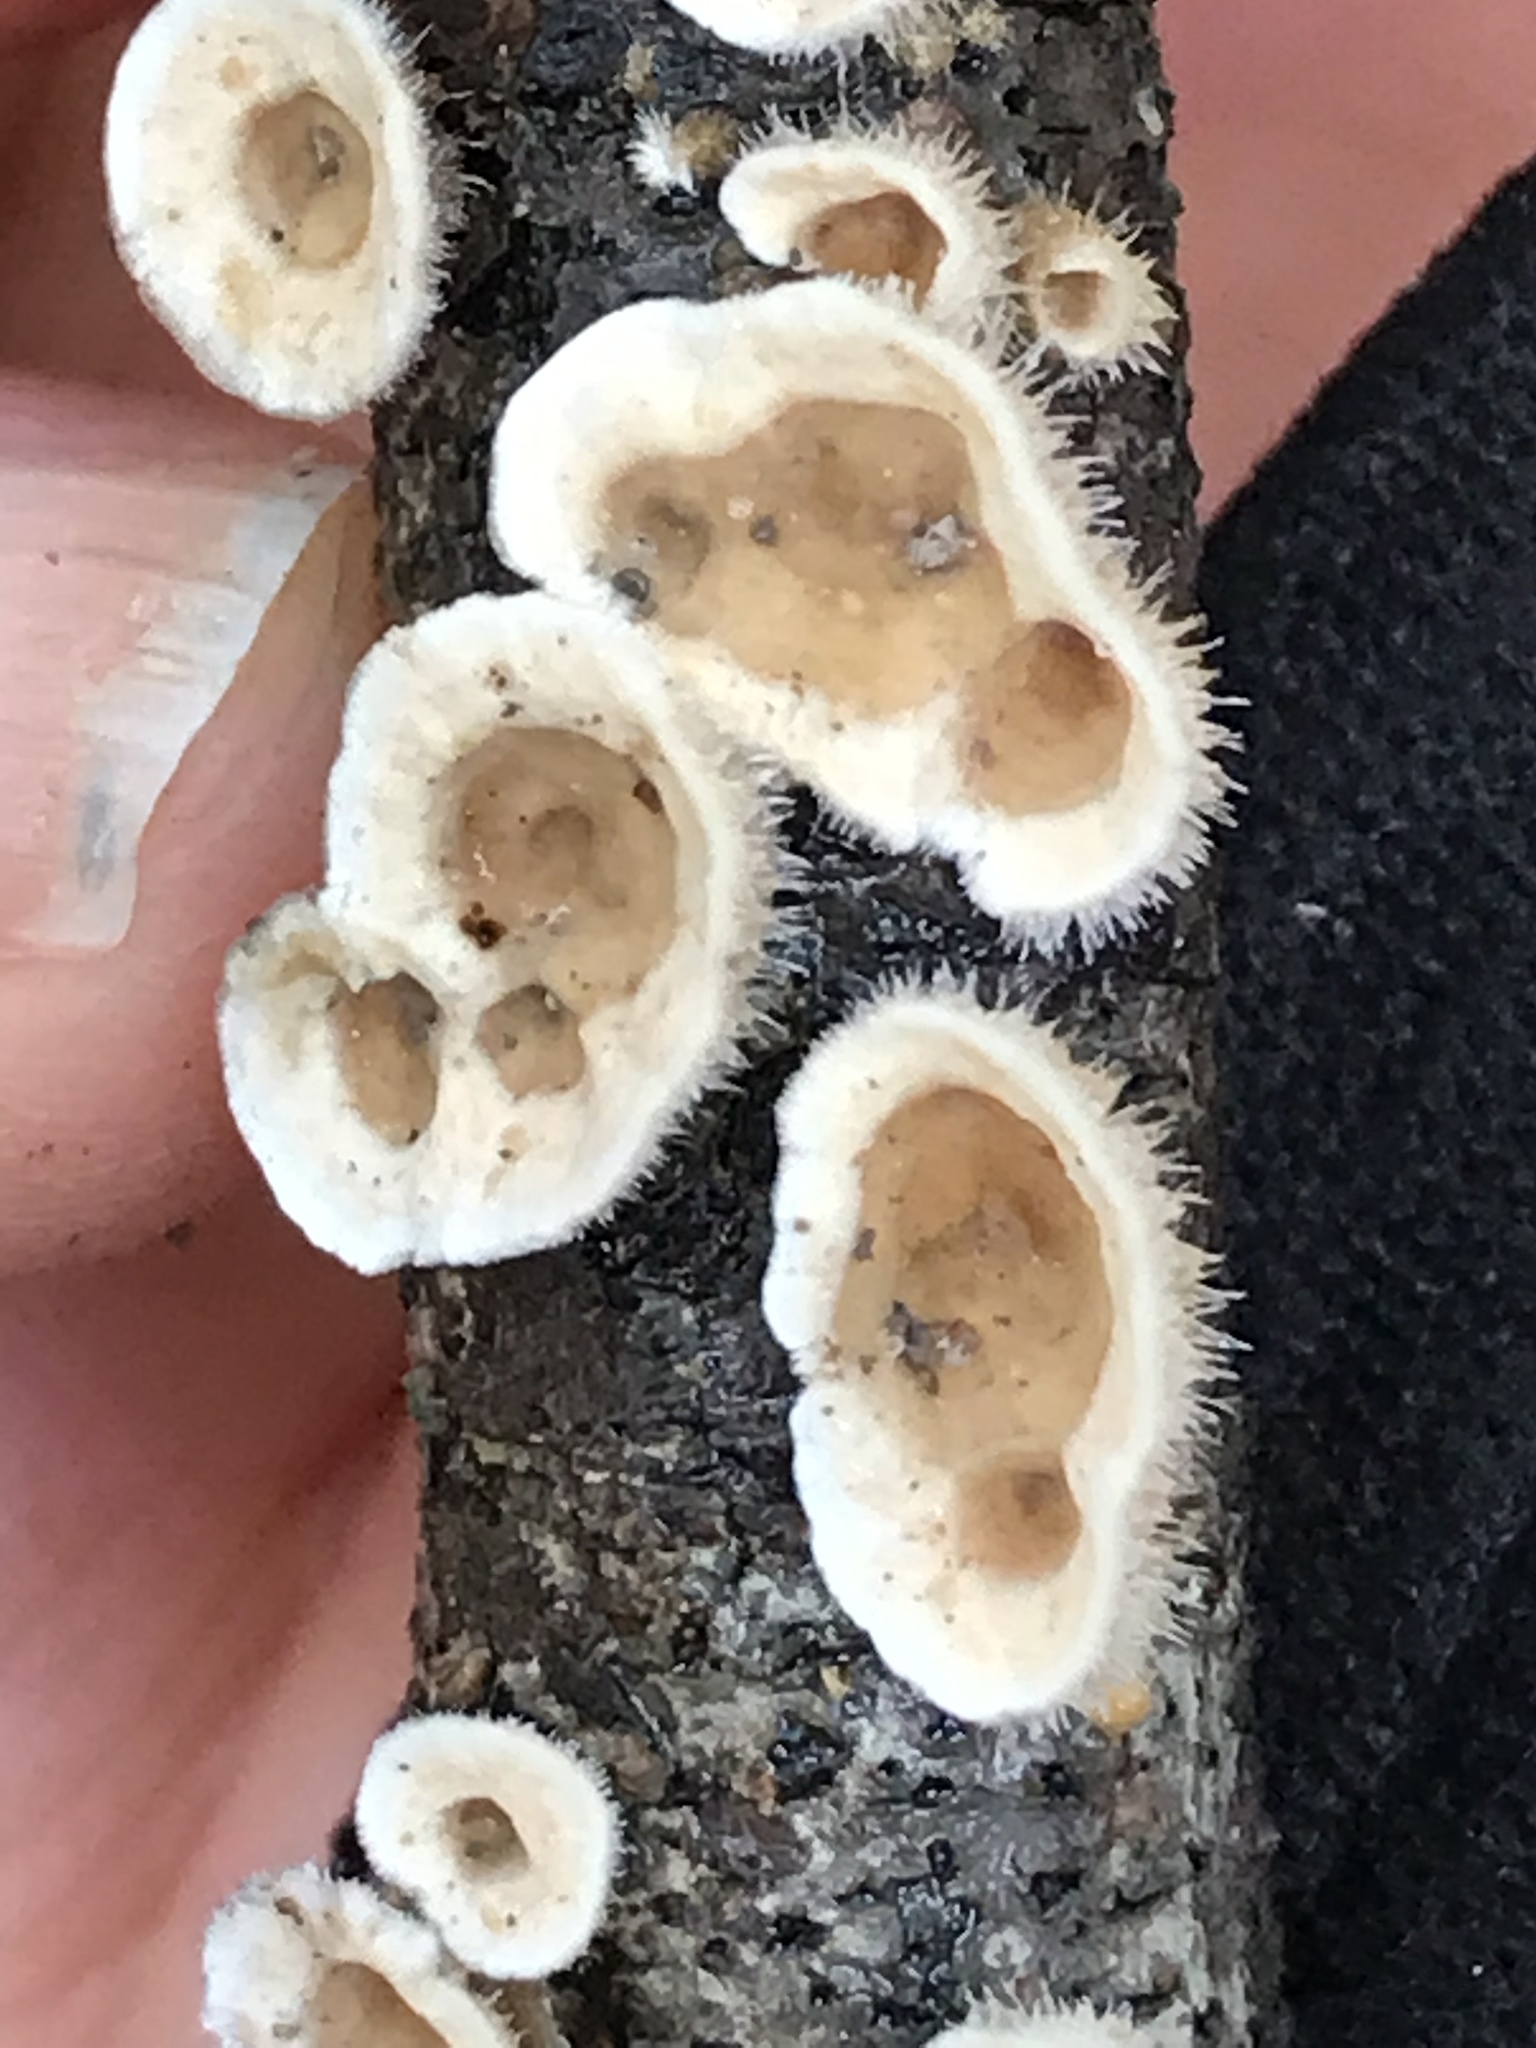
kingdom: Fungi
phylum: Basidiomycota
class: Agaricomycetes
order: Russulales
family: Stereaceae
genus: Stereum
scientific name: Stereum ochraceoflavum
